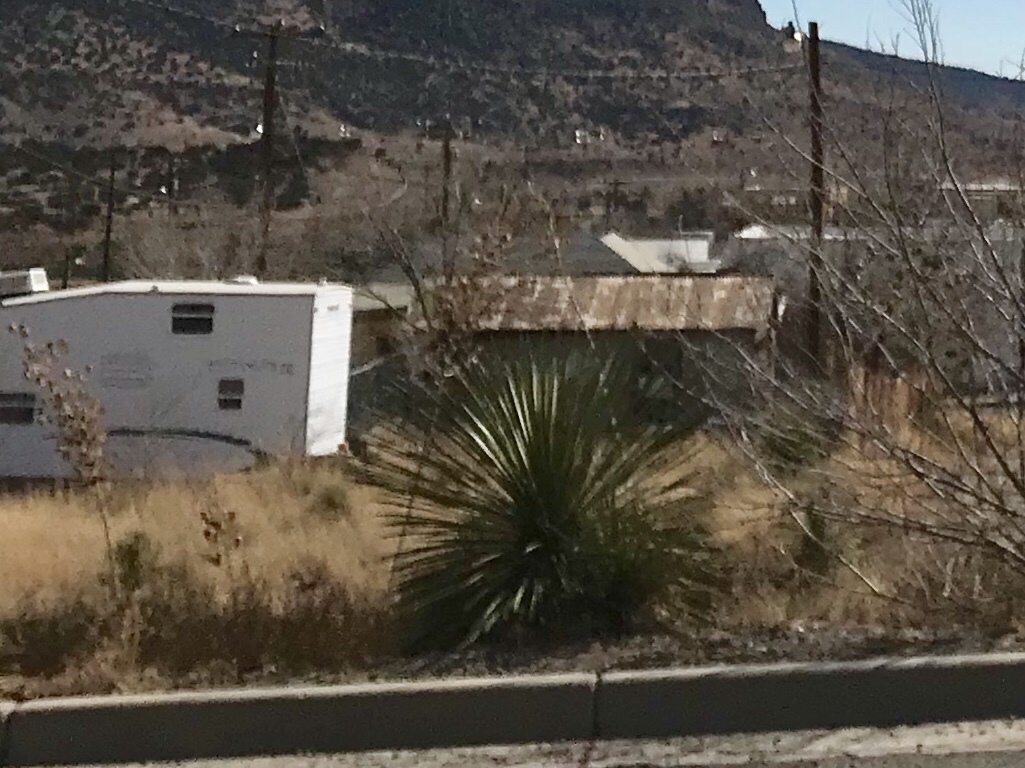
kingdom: Plantae
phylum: Tracheophyta
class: Liliopsida
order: Asparagales
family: Asparagaceae
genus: Dasylirion
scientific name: Dasylirion wheeleri
